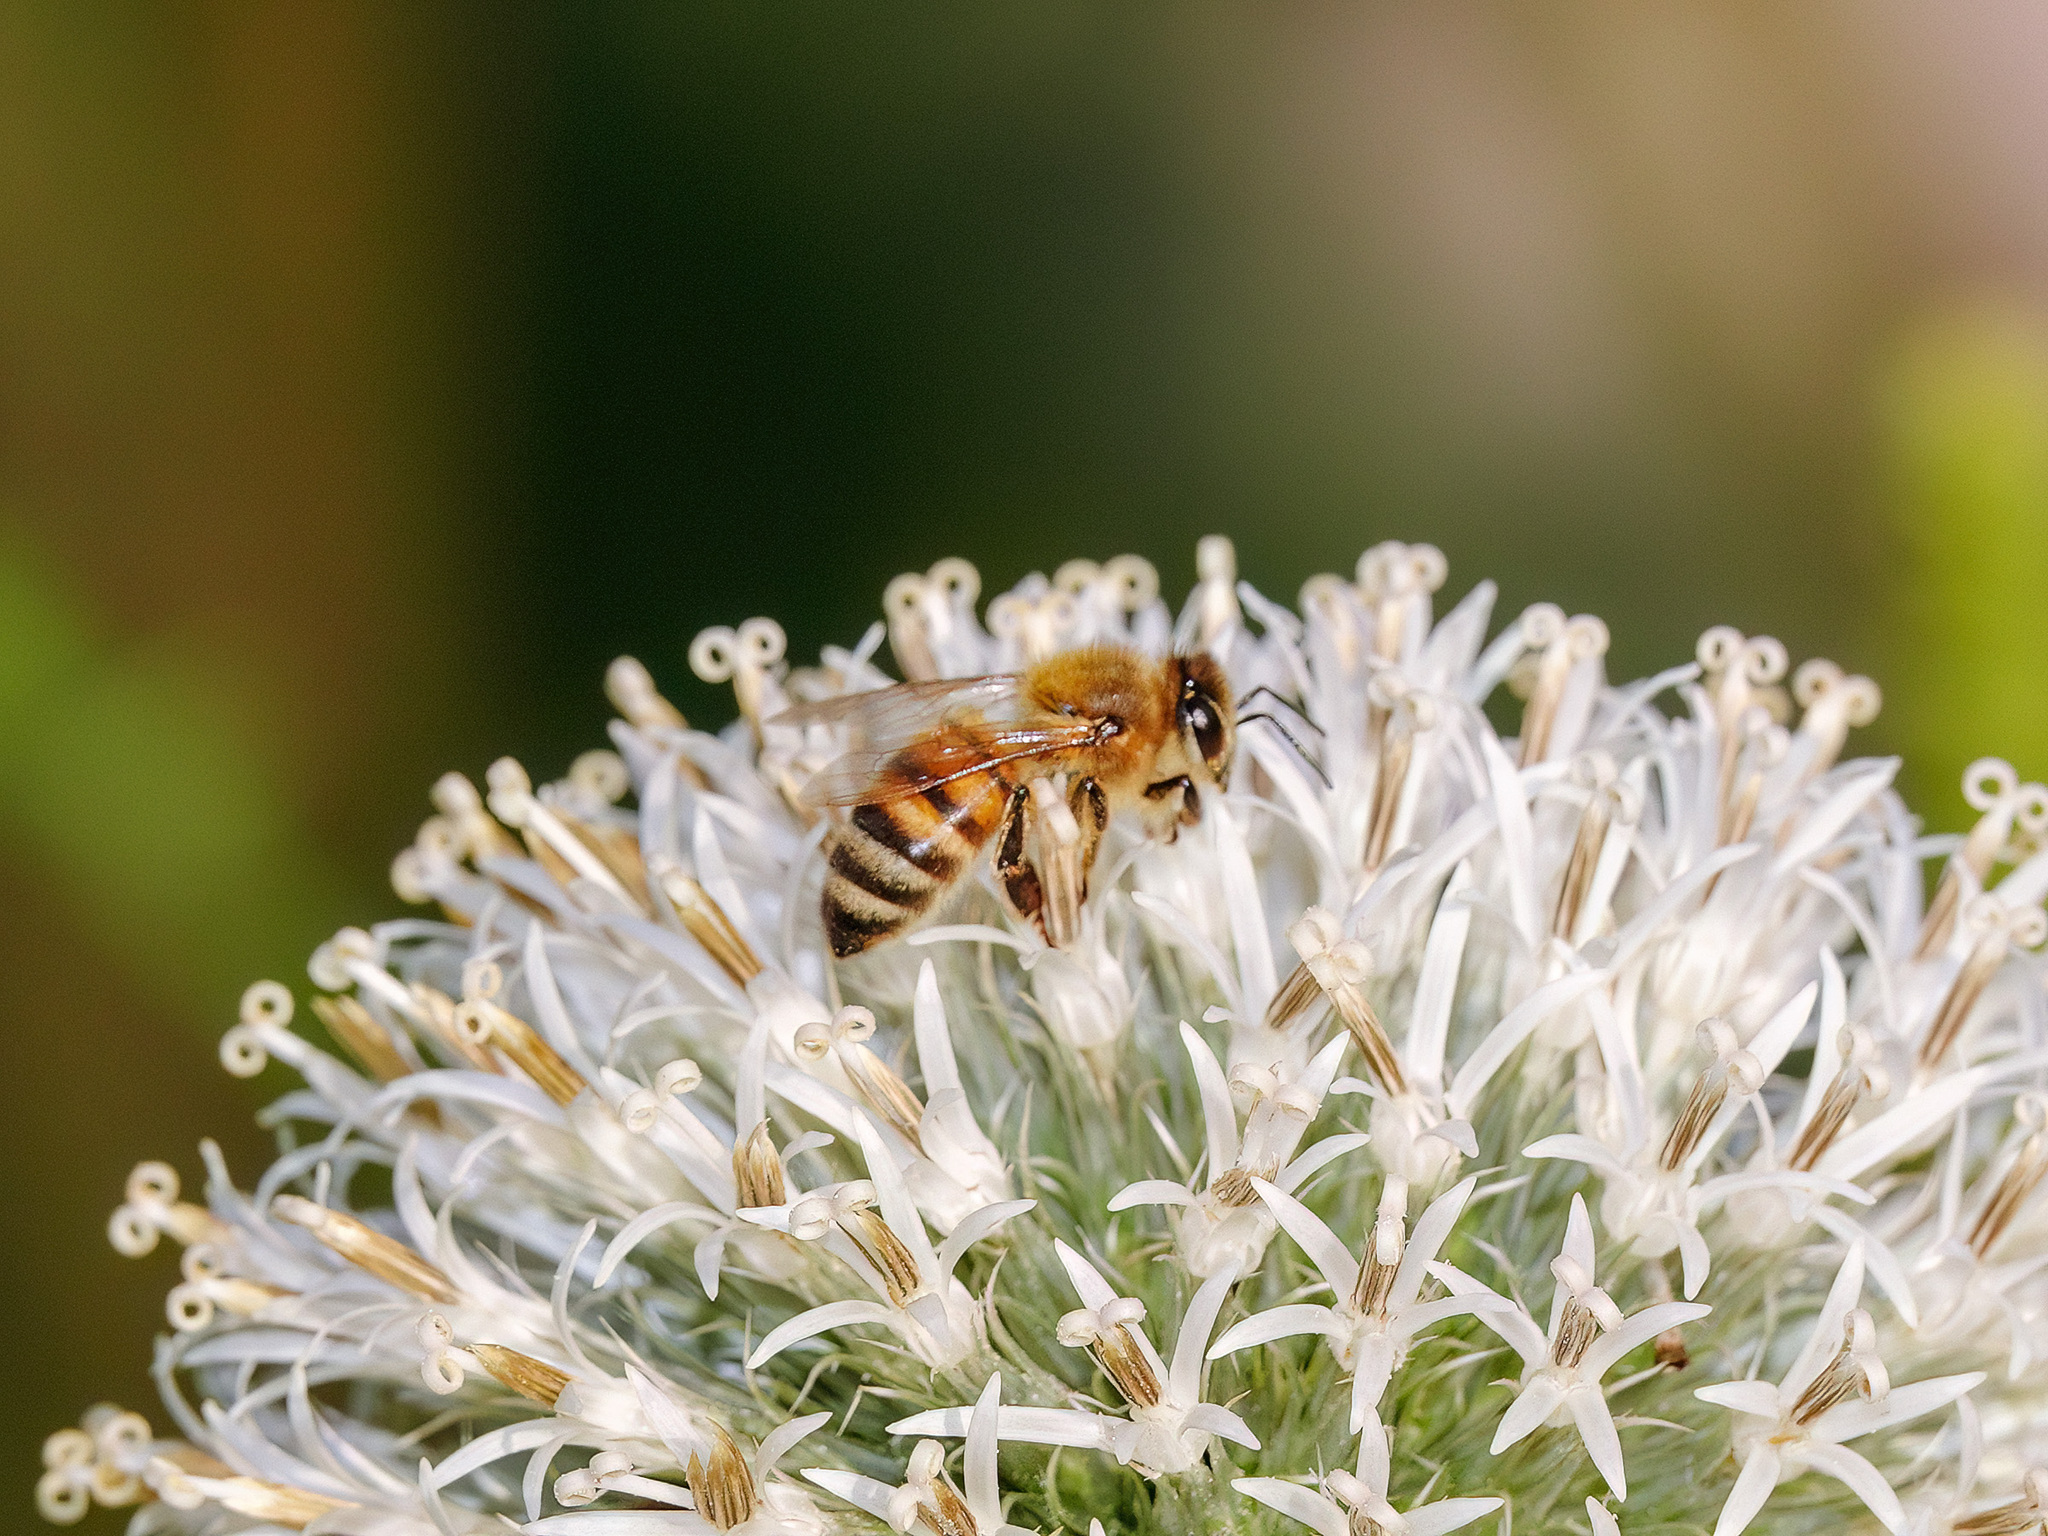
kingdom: Animalia
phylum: Arthropoda
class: Insecta
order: Hymenoptera
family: Apidae
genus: Apis
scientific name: Apis mellifera
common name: Honey bee
